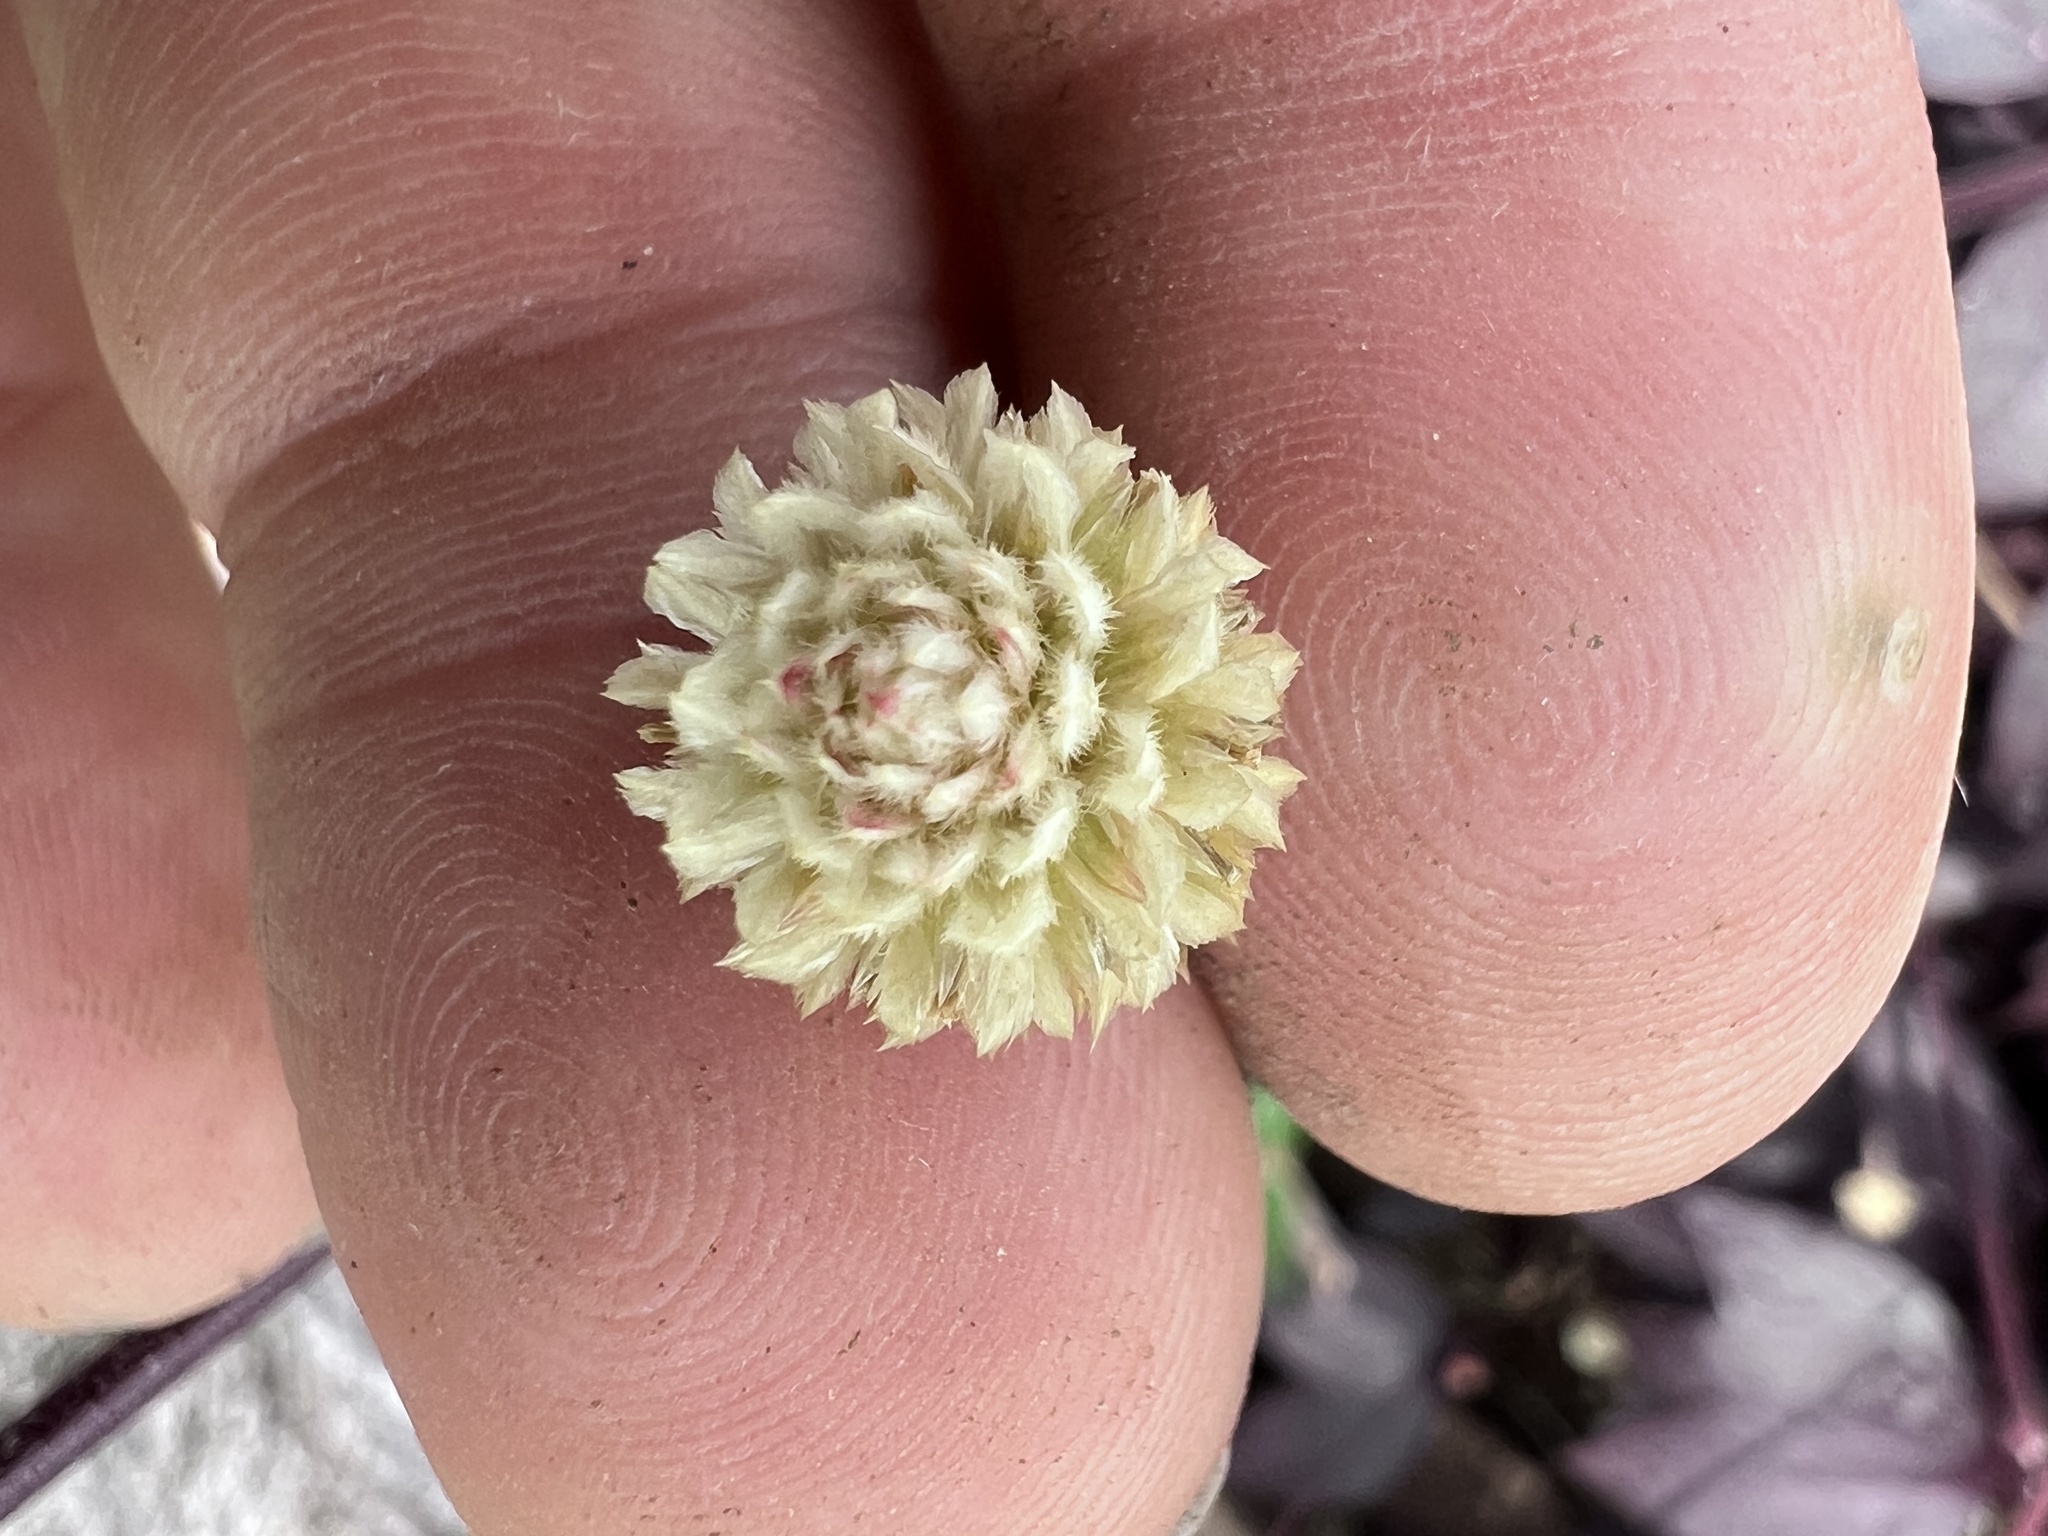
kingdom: Plantae
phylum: Tracheophyta
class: Magnoliopsida
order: Caryophyllales
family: Amaranthaceae
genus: Alternanthera
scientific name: Alternanthera brasiliana
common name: Brazilian joyweed
